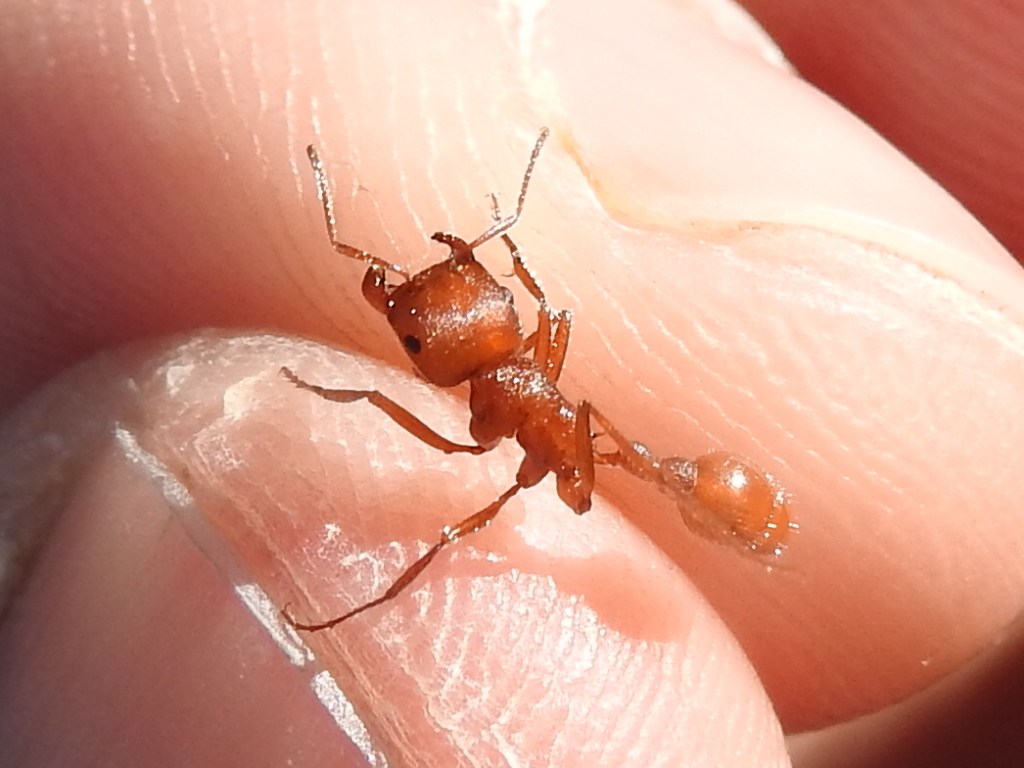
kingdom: Animalia
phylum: Arthropoda
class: Insecta
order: Hymenoptera
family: Formicidae
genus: Pogonomyrmex
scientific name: Pogonomyrmex comanche
